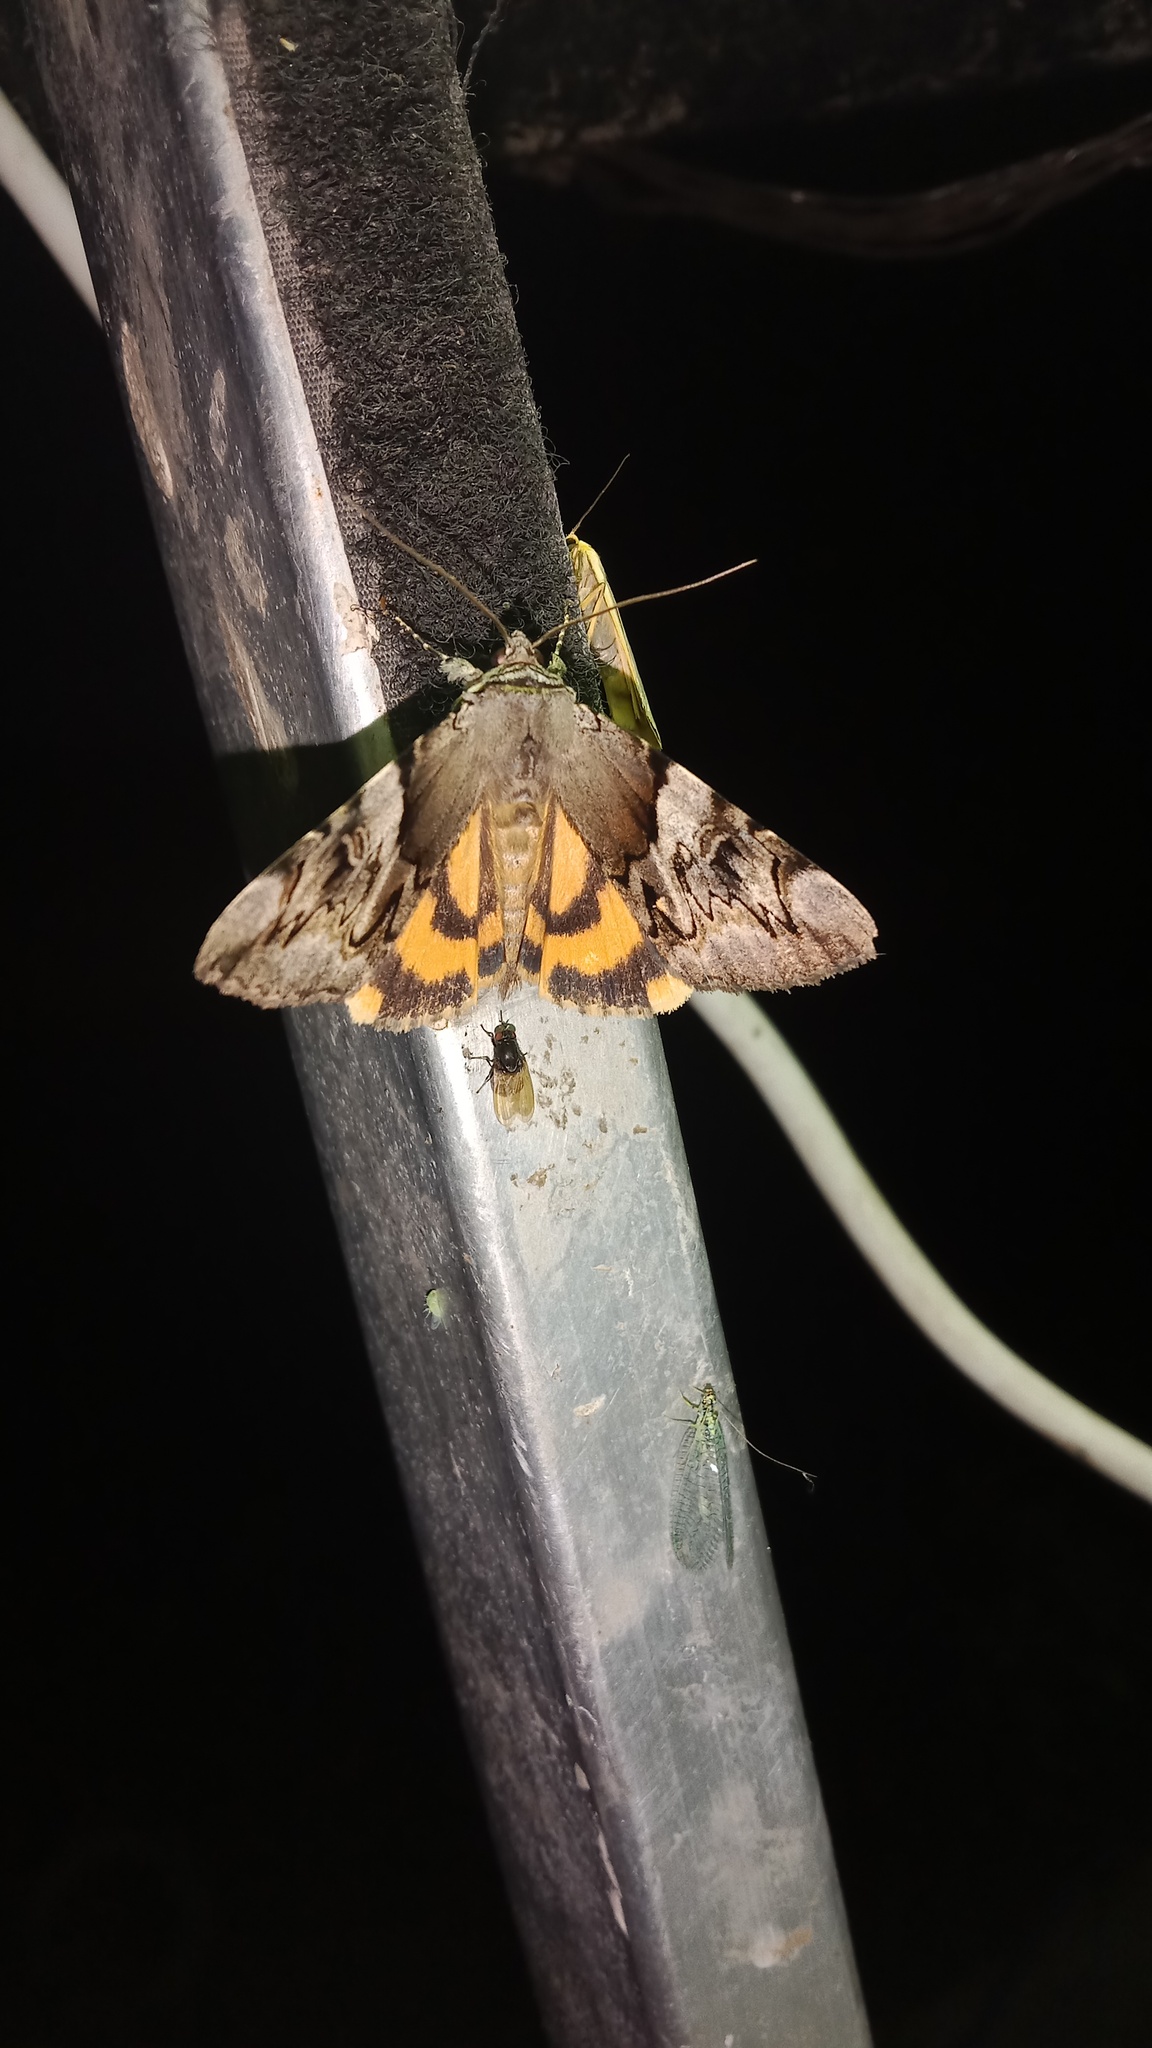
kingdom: Animalia
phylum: Arthropoda
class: Insecta
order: Lepidoptera
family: Erebidae
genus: Catocala
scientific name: Catocala fulminea
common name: Yellow bands underwing
